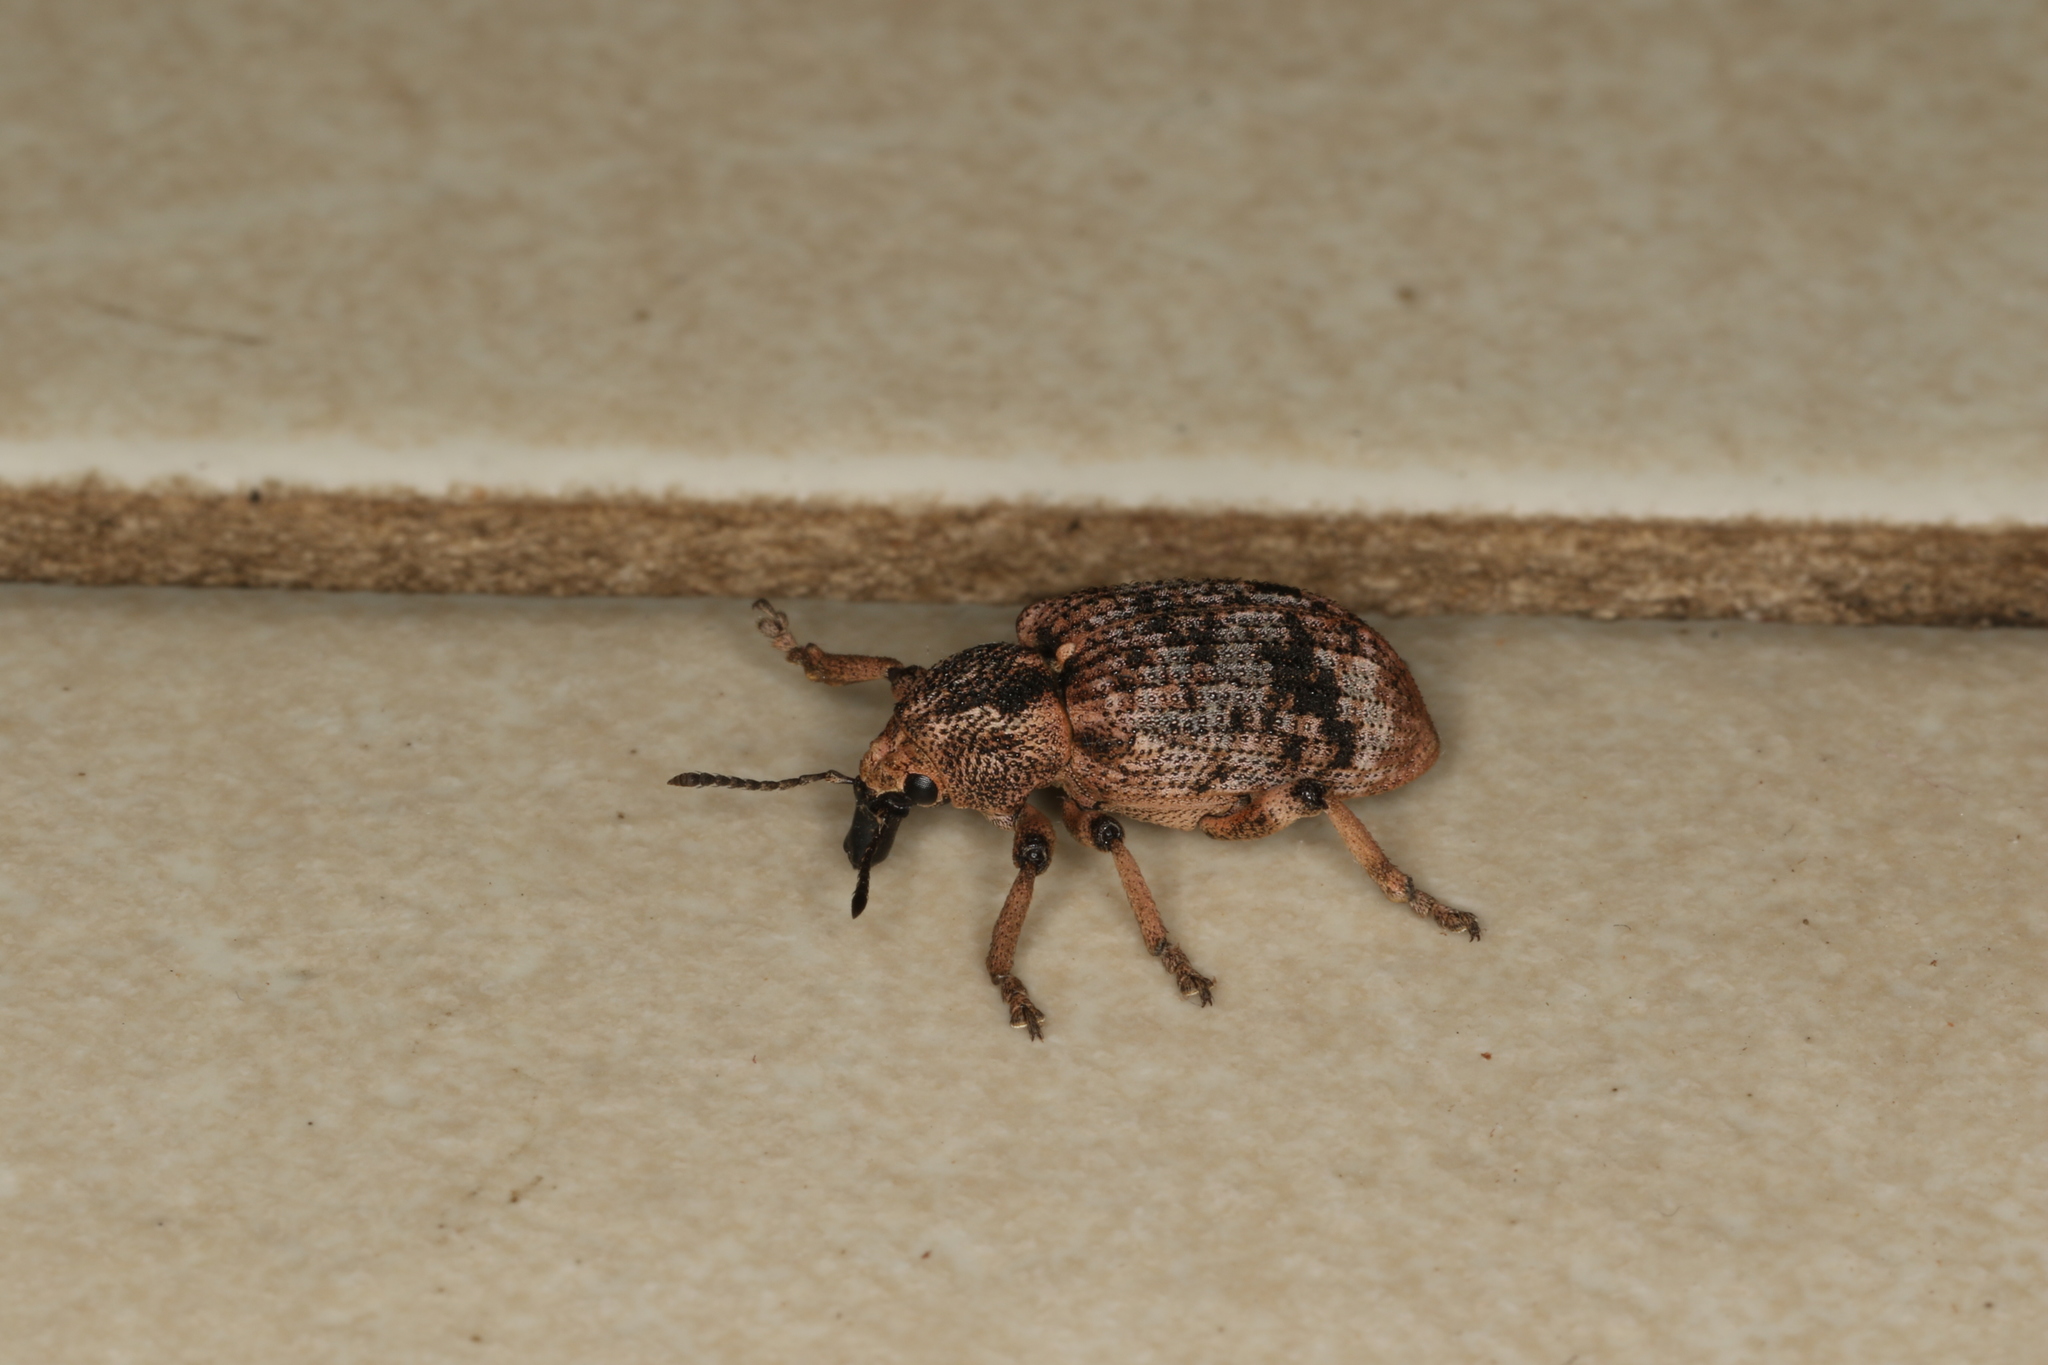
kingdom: Animalia
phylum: Arthropoda
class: Insecta
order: Coleoptera
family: Curculionidae
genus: Rhinaria
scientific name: Rhinaria convexirostris
